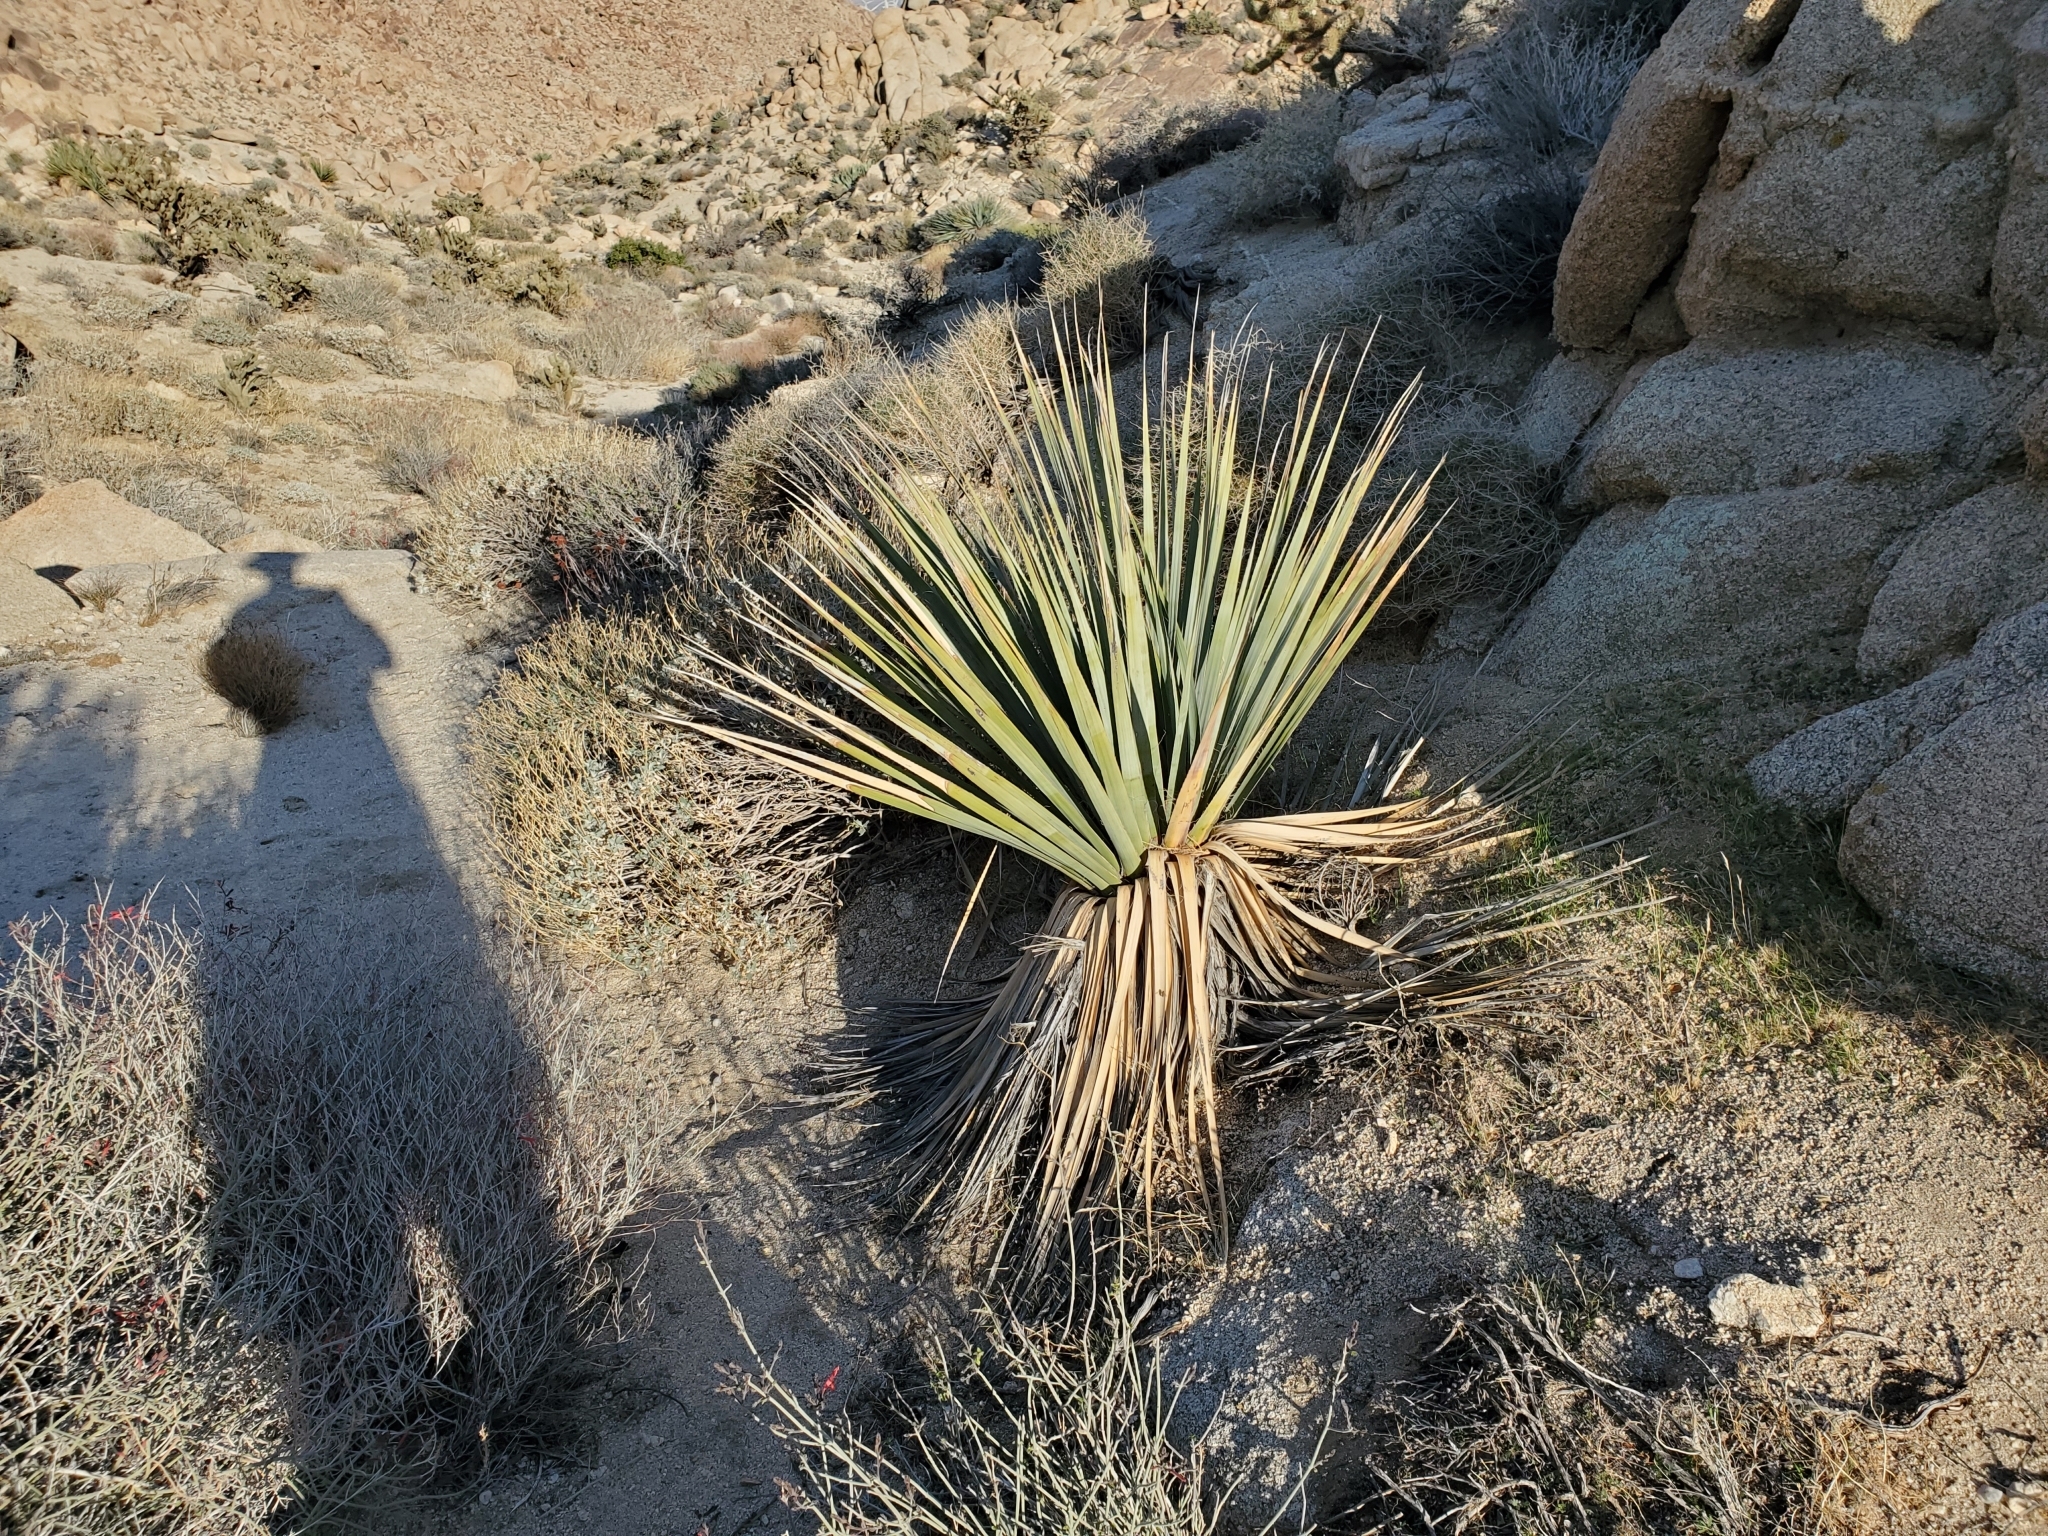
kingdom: Plantae
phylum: Tracheophyta
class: Liliopsida
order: Asparagales
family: Asparagaceae
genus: Nolina
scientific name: Nolina bigelovii
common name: Bigelow bear-grass
